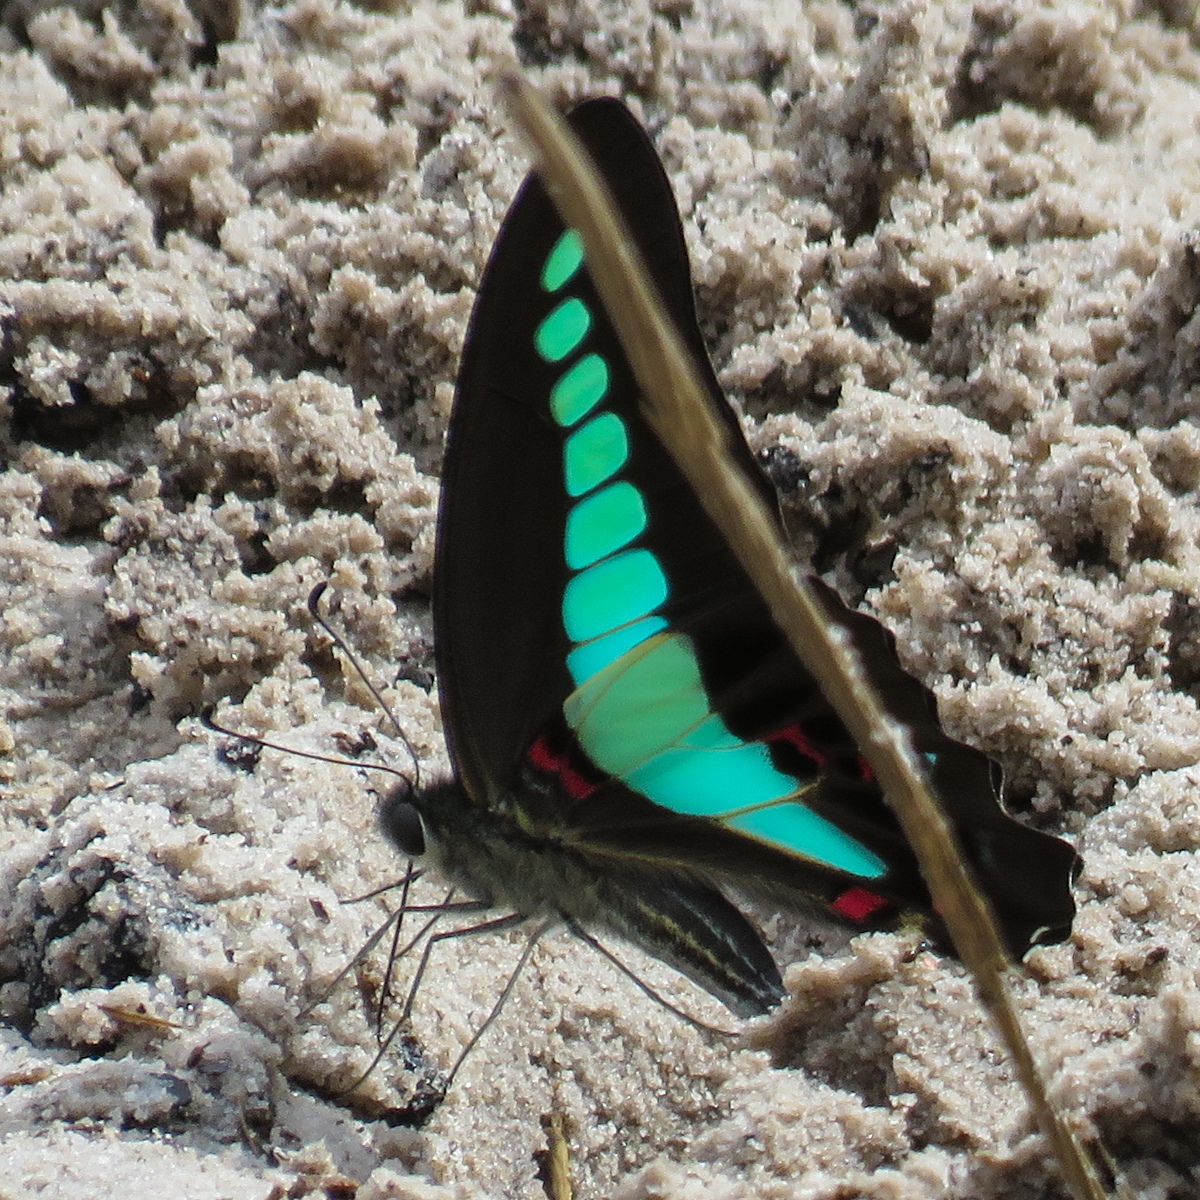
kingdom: Fungi
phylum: Ascomycota
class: Sordariomycetes
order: Microascales
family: Microascaceae
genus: Graphium
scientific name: Graphium sarpedon
